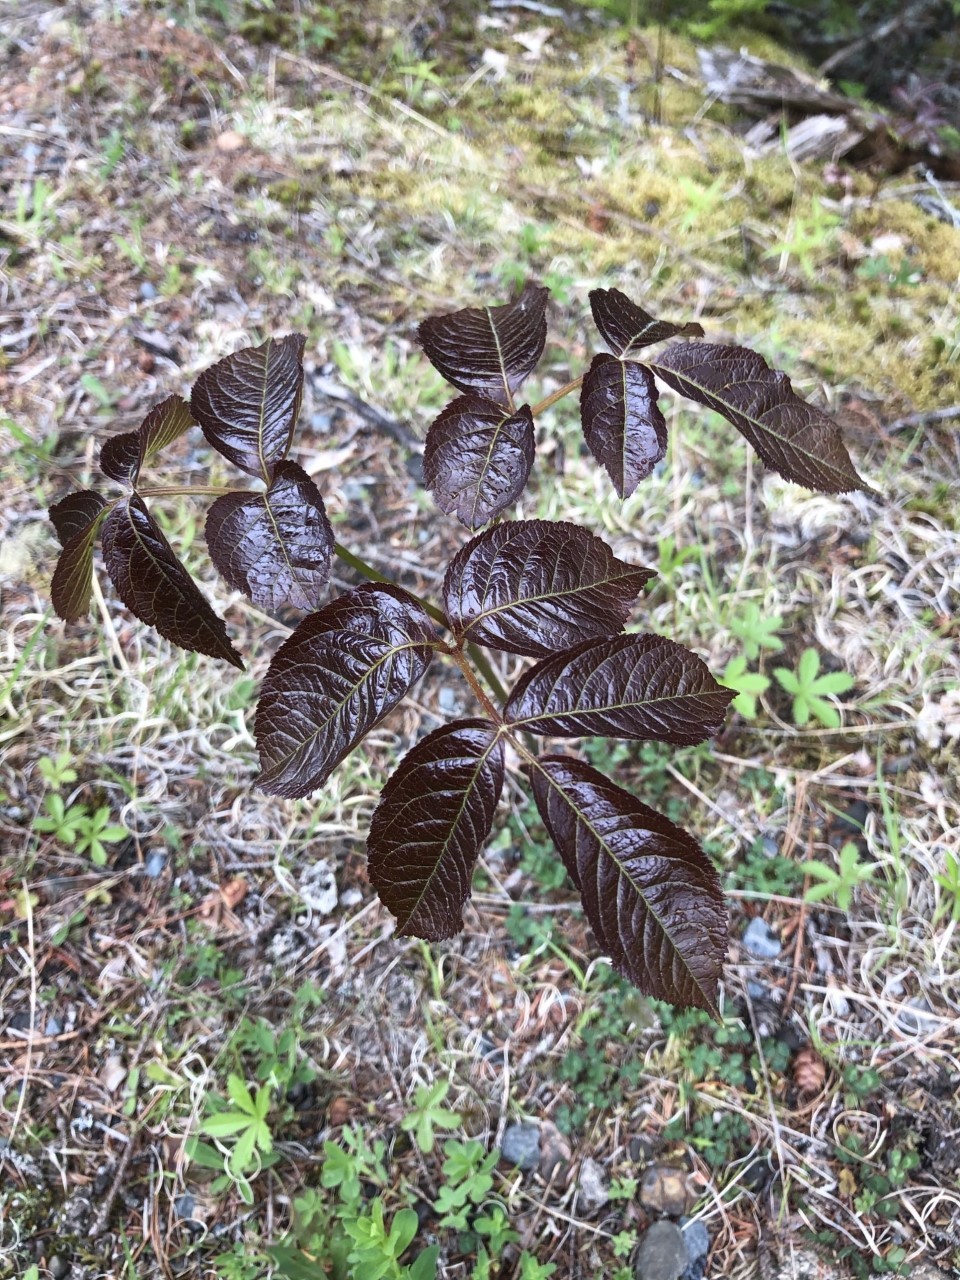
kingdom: Plantae
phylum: Tracheophyta
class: Magnoliopsida
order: Apiales
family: Araliaceae
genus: Aralia
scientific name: Aralia nudicaulis
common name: Wild sarsaparilla
